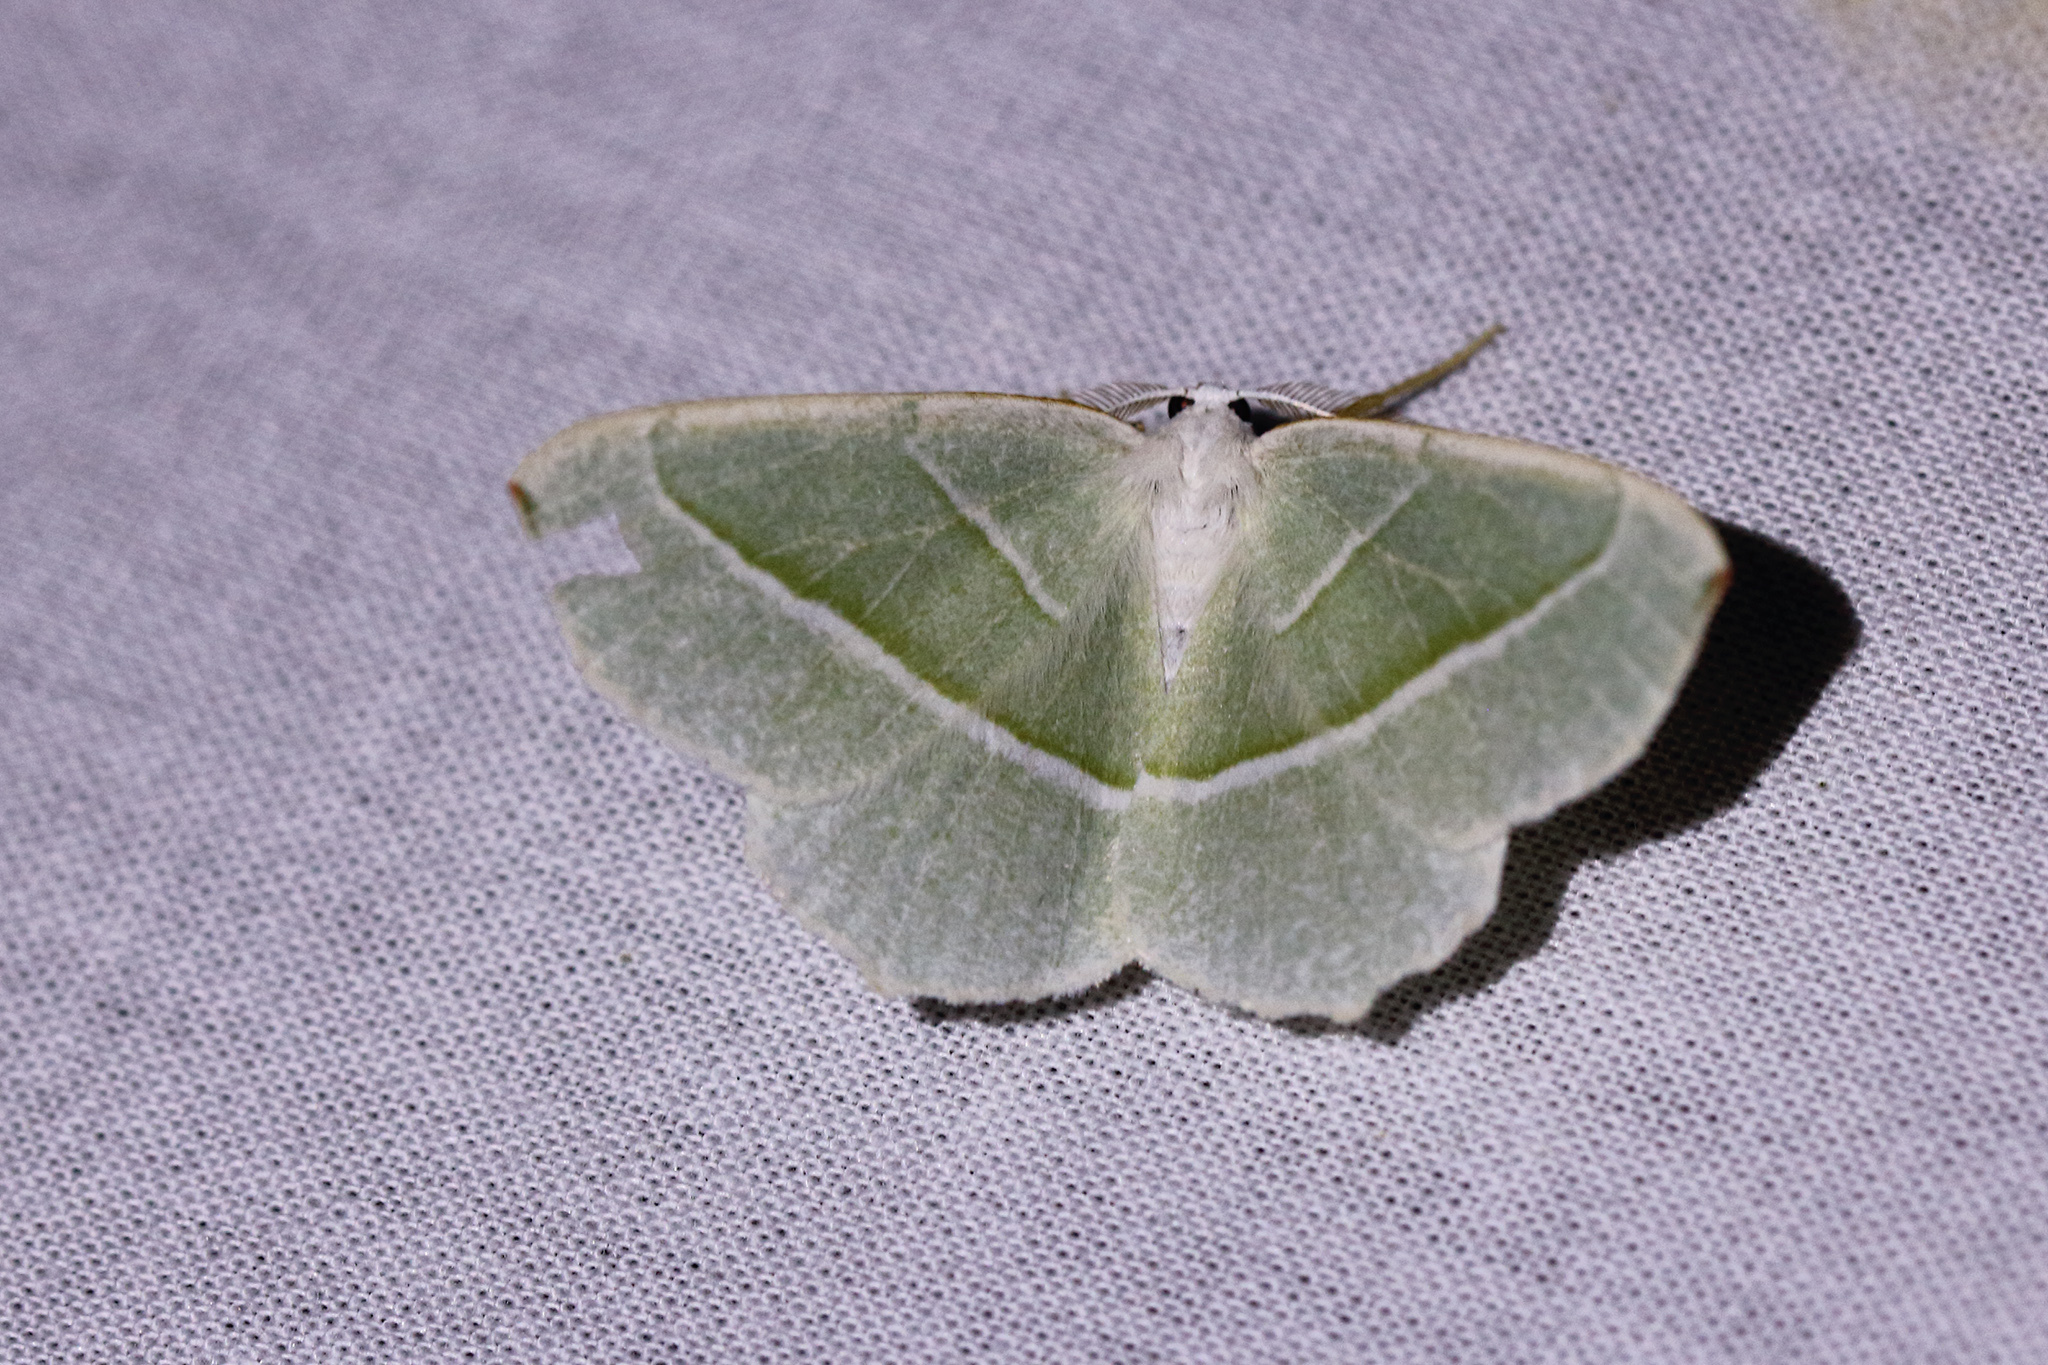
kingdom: Animalia
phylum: Arthropoda
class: Insecta
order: Lepidoptera
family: Geometridae
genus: Campaea
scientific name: Campaea margaritaria
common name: Light emerald
